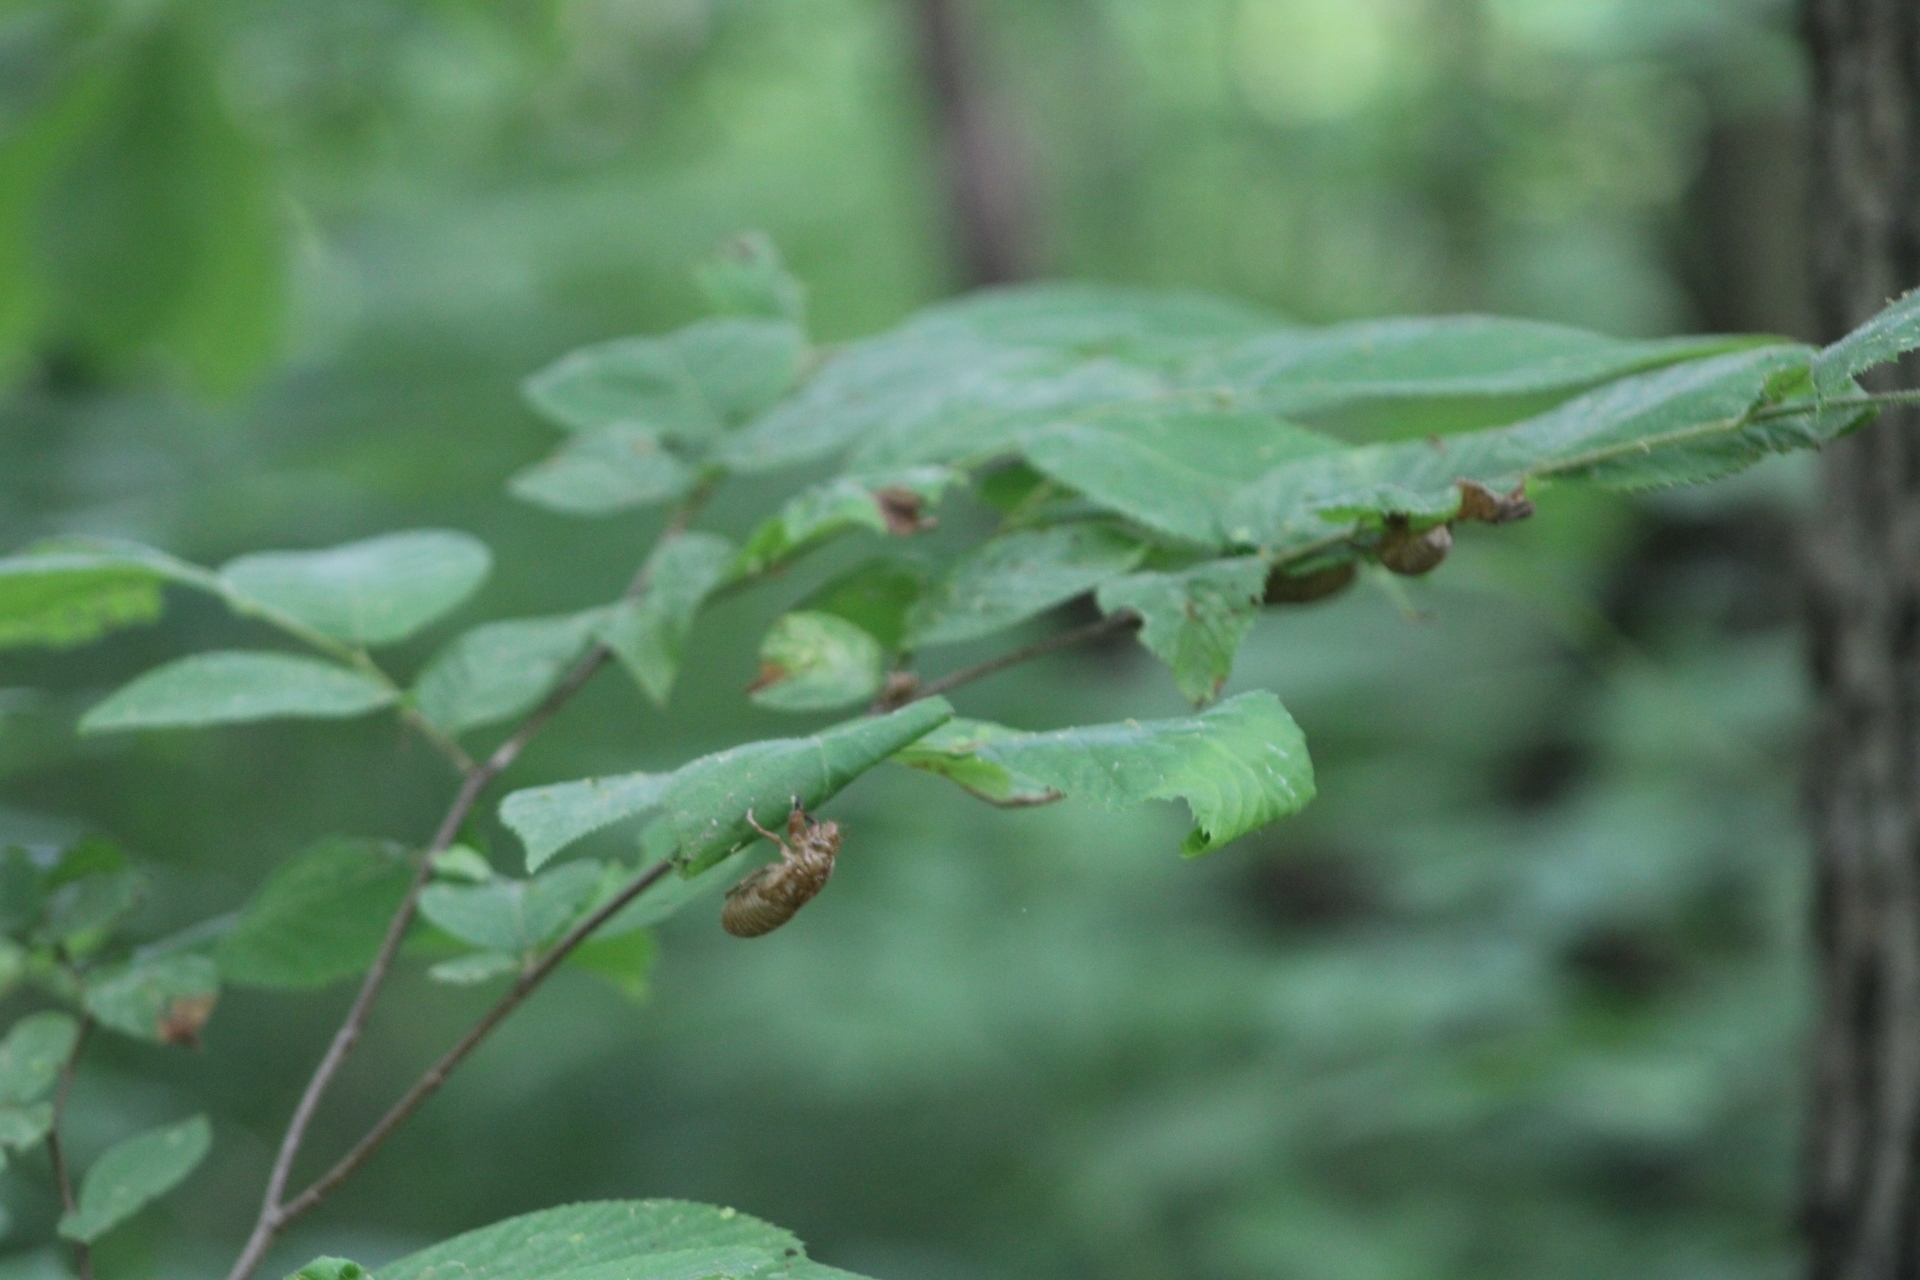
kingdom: Animalia
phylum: Arthropoda
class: Insecta
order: Hemiptera
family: Cicadidae
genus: Magicicada
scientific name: Magicicada
